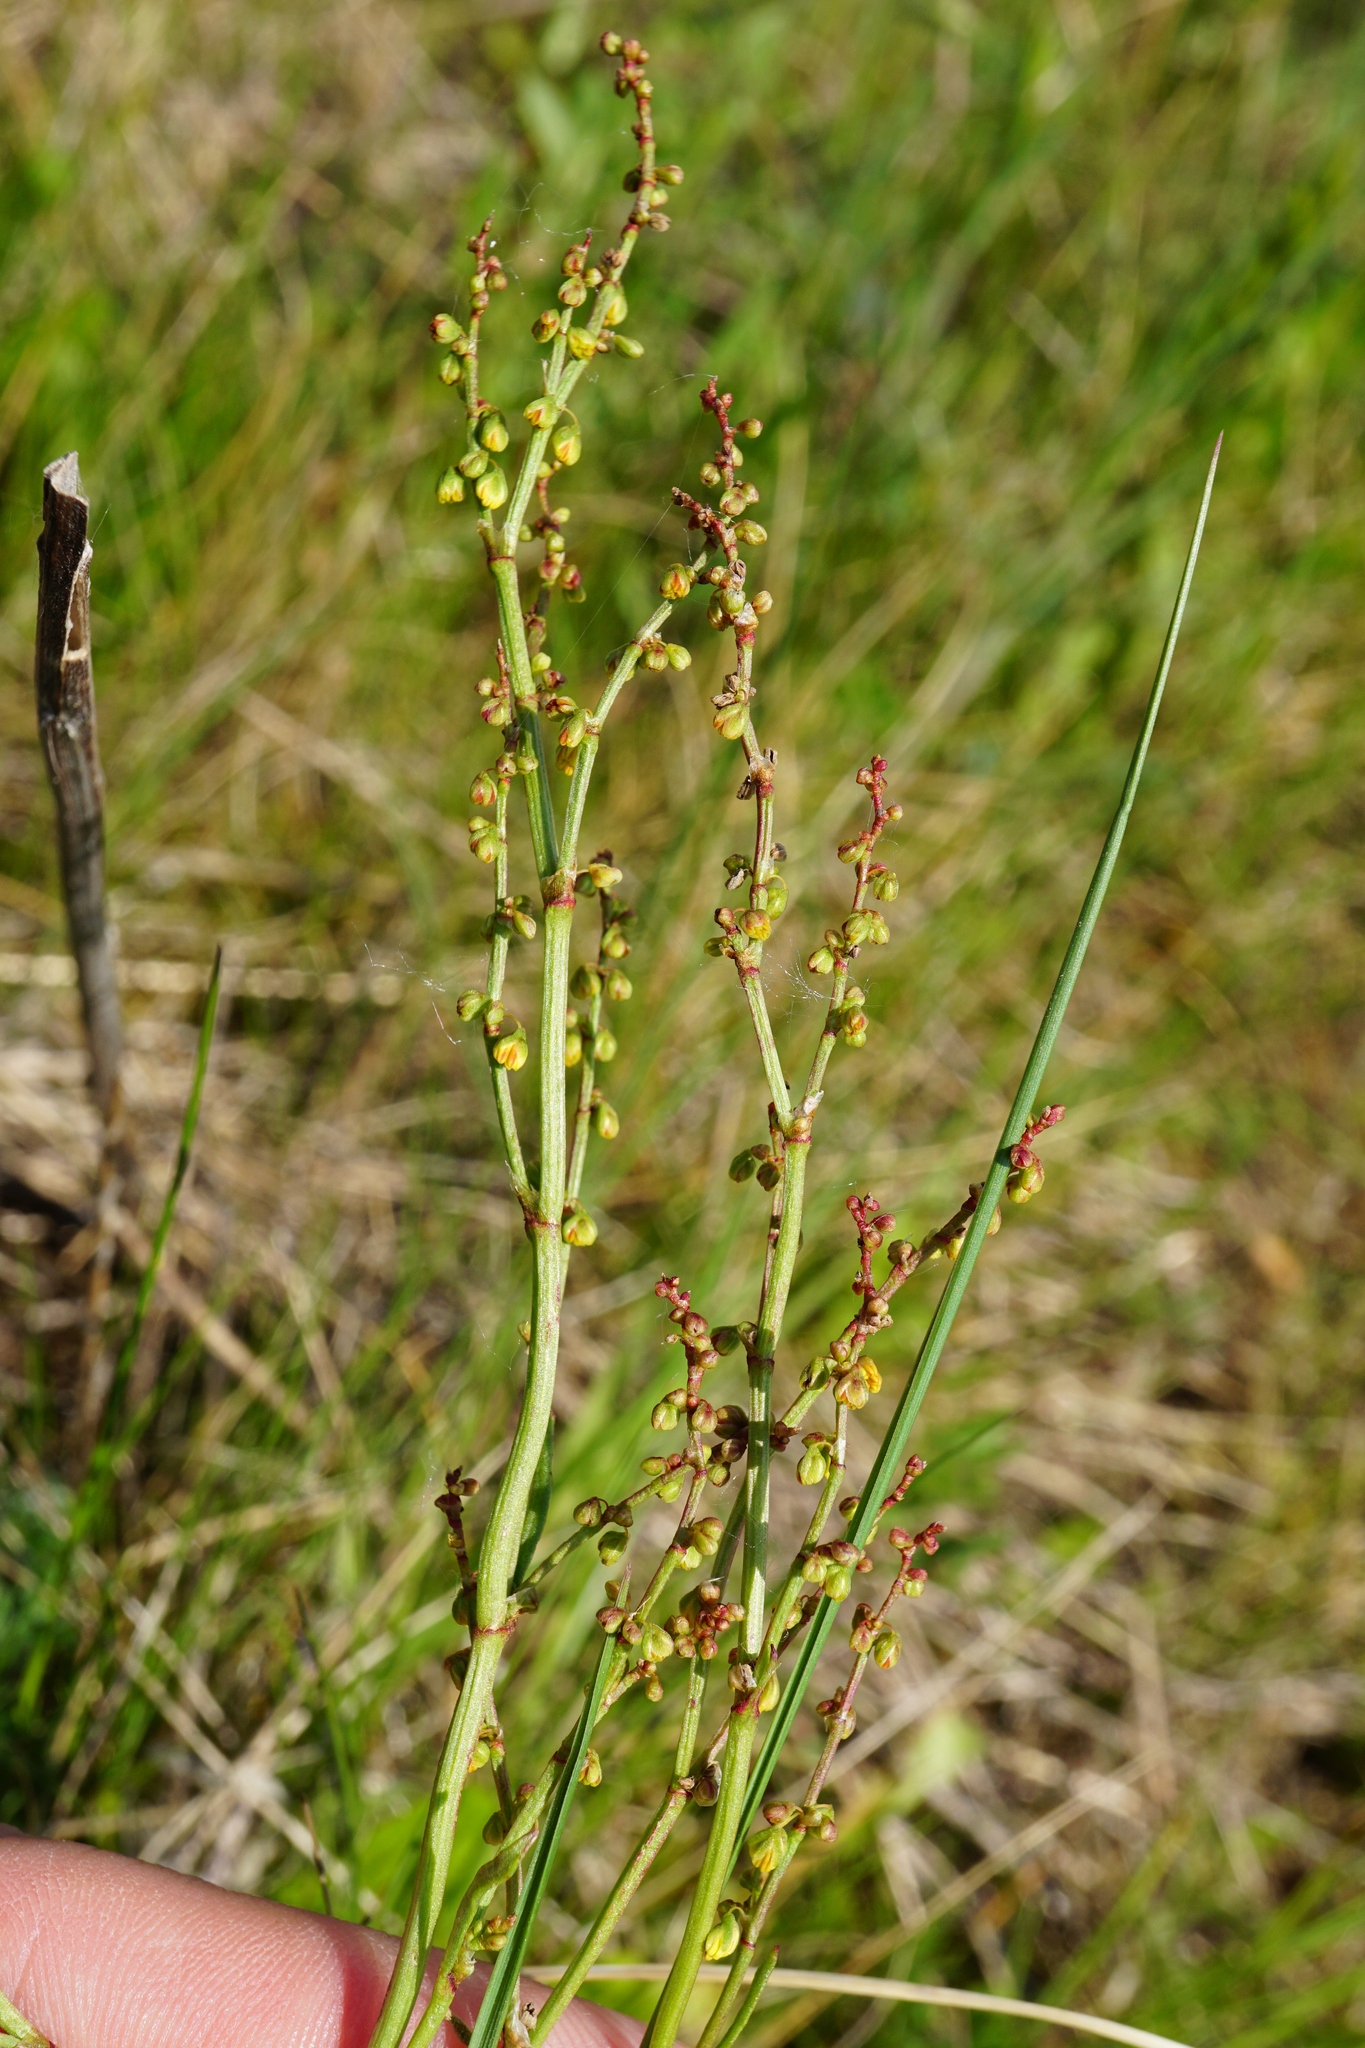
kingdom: Plantae
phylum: Tracheophyta
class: Magnoliopsida
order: Caryophyllales
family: Polygonaceae
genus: Rumex
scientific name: Rumex acetosella
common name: Common sheep sorrel
